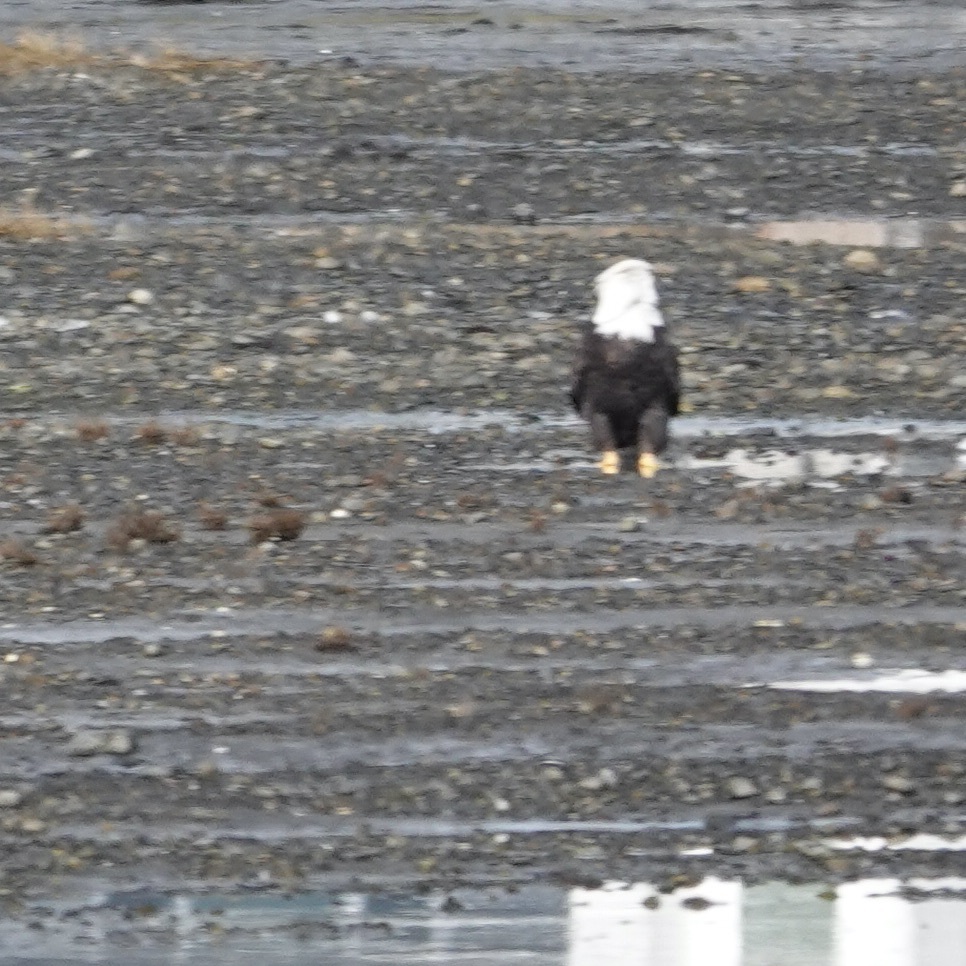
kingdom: Animalia
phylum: Chordata
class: Aves
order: Accipitriformes
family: Accipitridae
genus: Haliaeetus
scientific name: Haliaeetus leucocephalus
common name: Bald eagle
